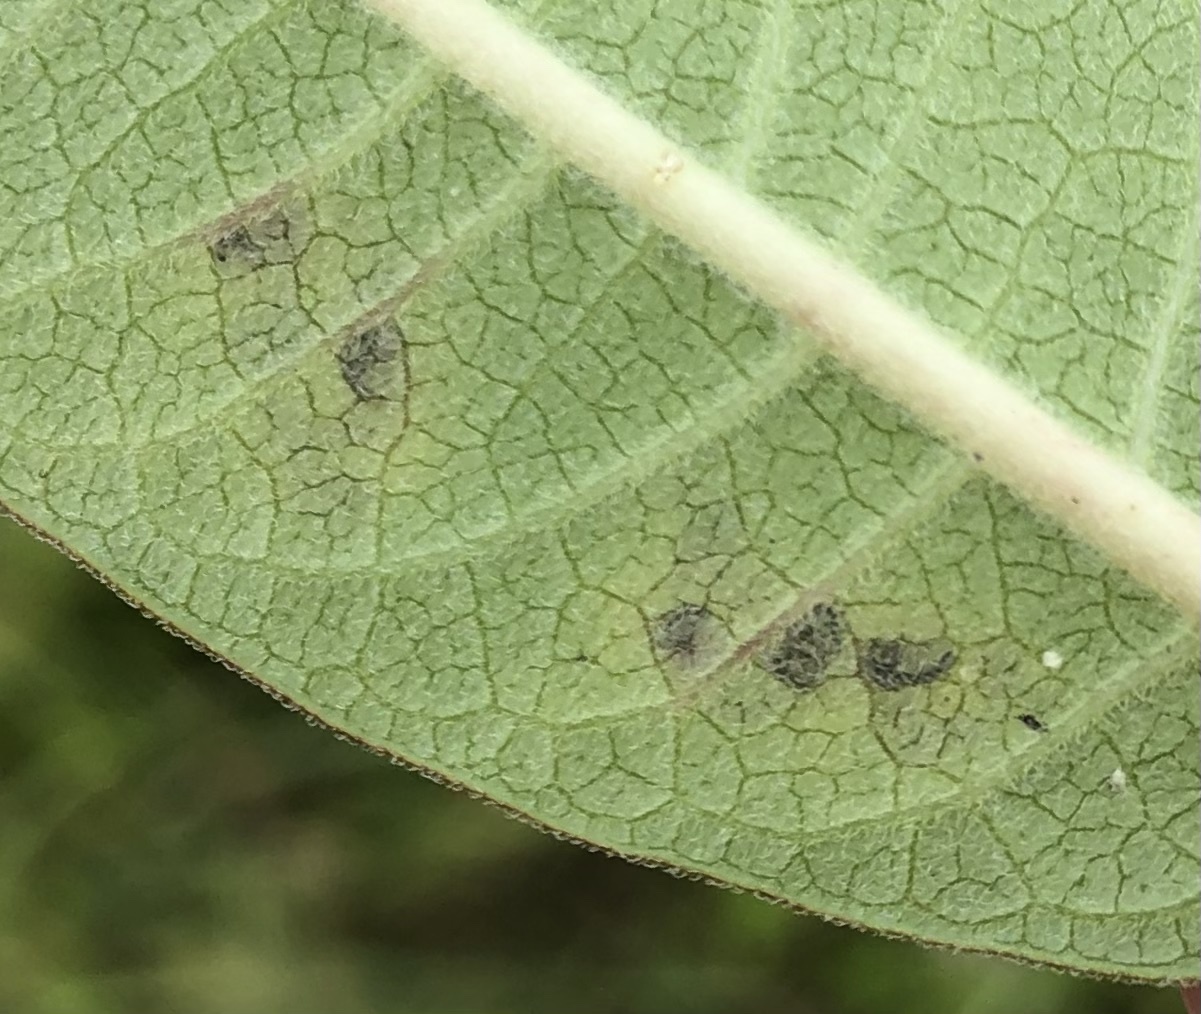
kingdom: Animalia
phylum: Arthropoda
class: Insecta
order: Diptera
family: Agromyzidae
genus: Liriomyza
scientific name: Liriomyza asclepiadis
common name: Milkweed leaf-miner fly
